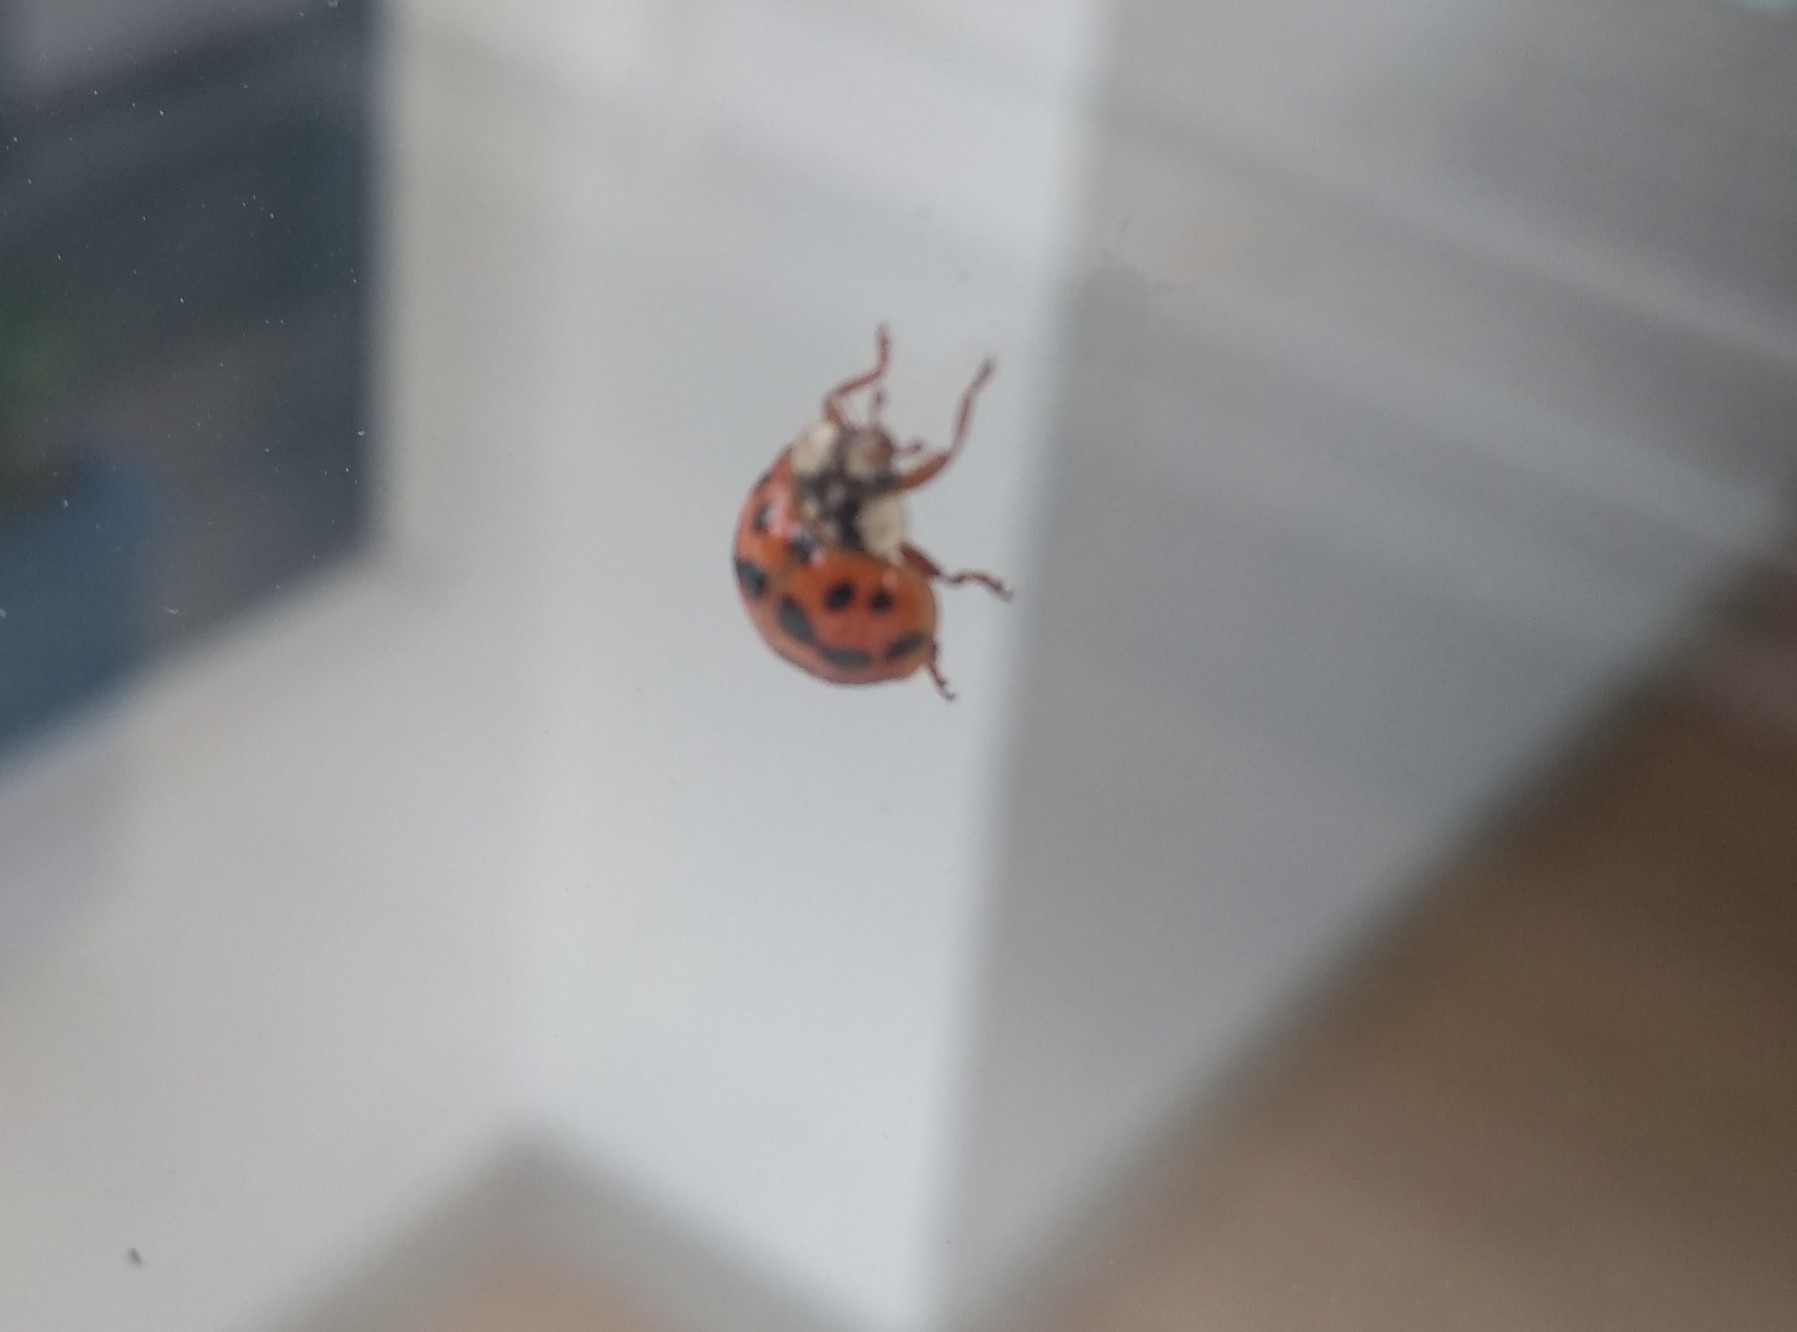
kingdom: Animalia
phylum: Arthropoda
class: Insecta
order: Coleoptera
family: Coccinellidae
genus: Harmonia
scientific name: Harmonia axyridis
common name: Harlequin ladybird
